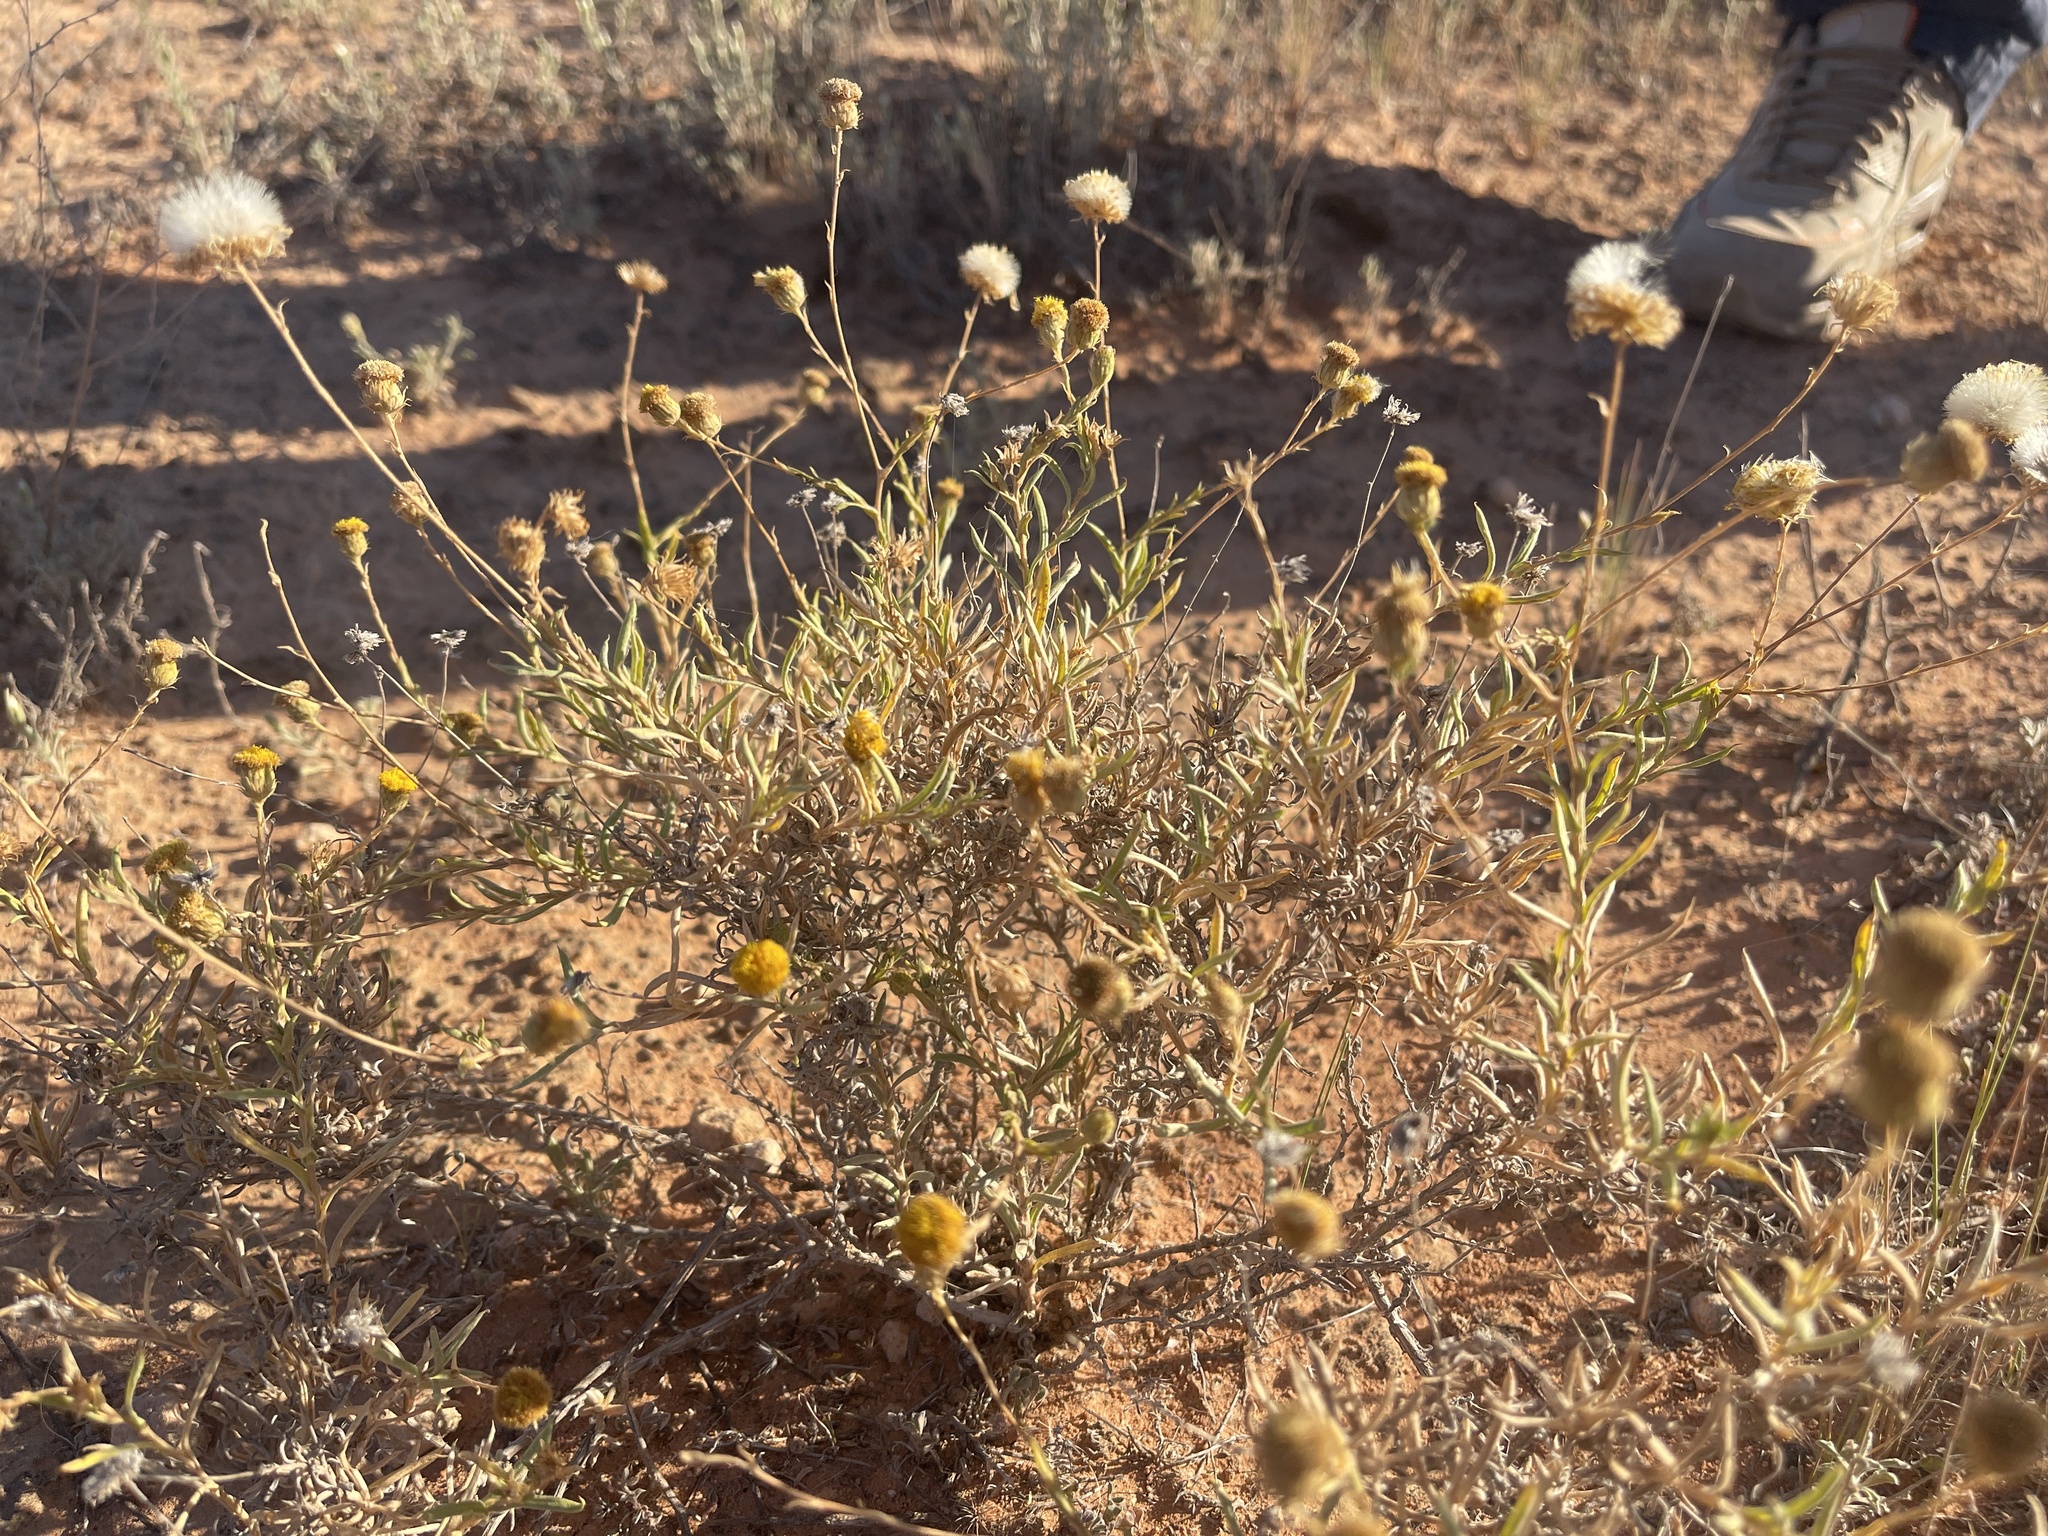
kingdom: Plantae
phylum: Tracheophyta
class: Magnoliopsida
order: Asterales
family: Asteraceae
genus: Leiocarpa
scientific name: Leiocarpa semicalva
